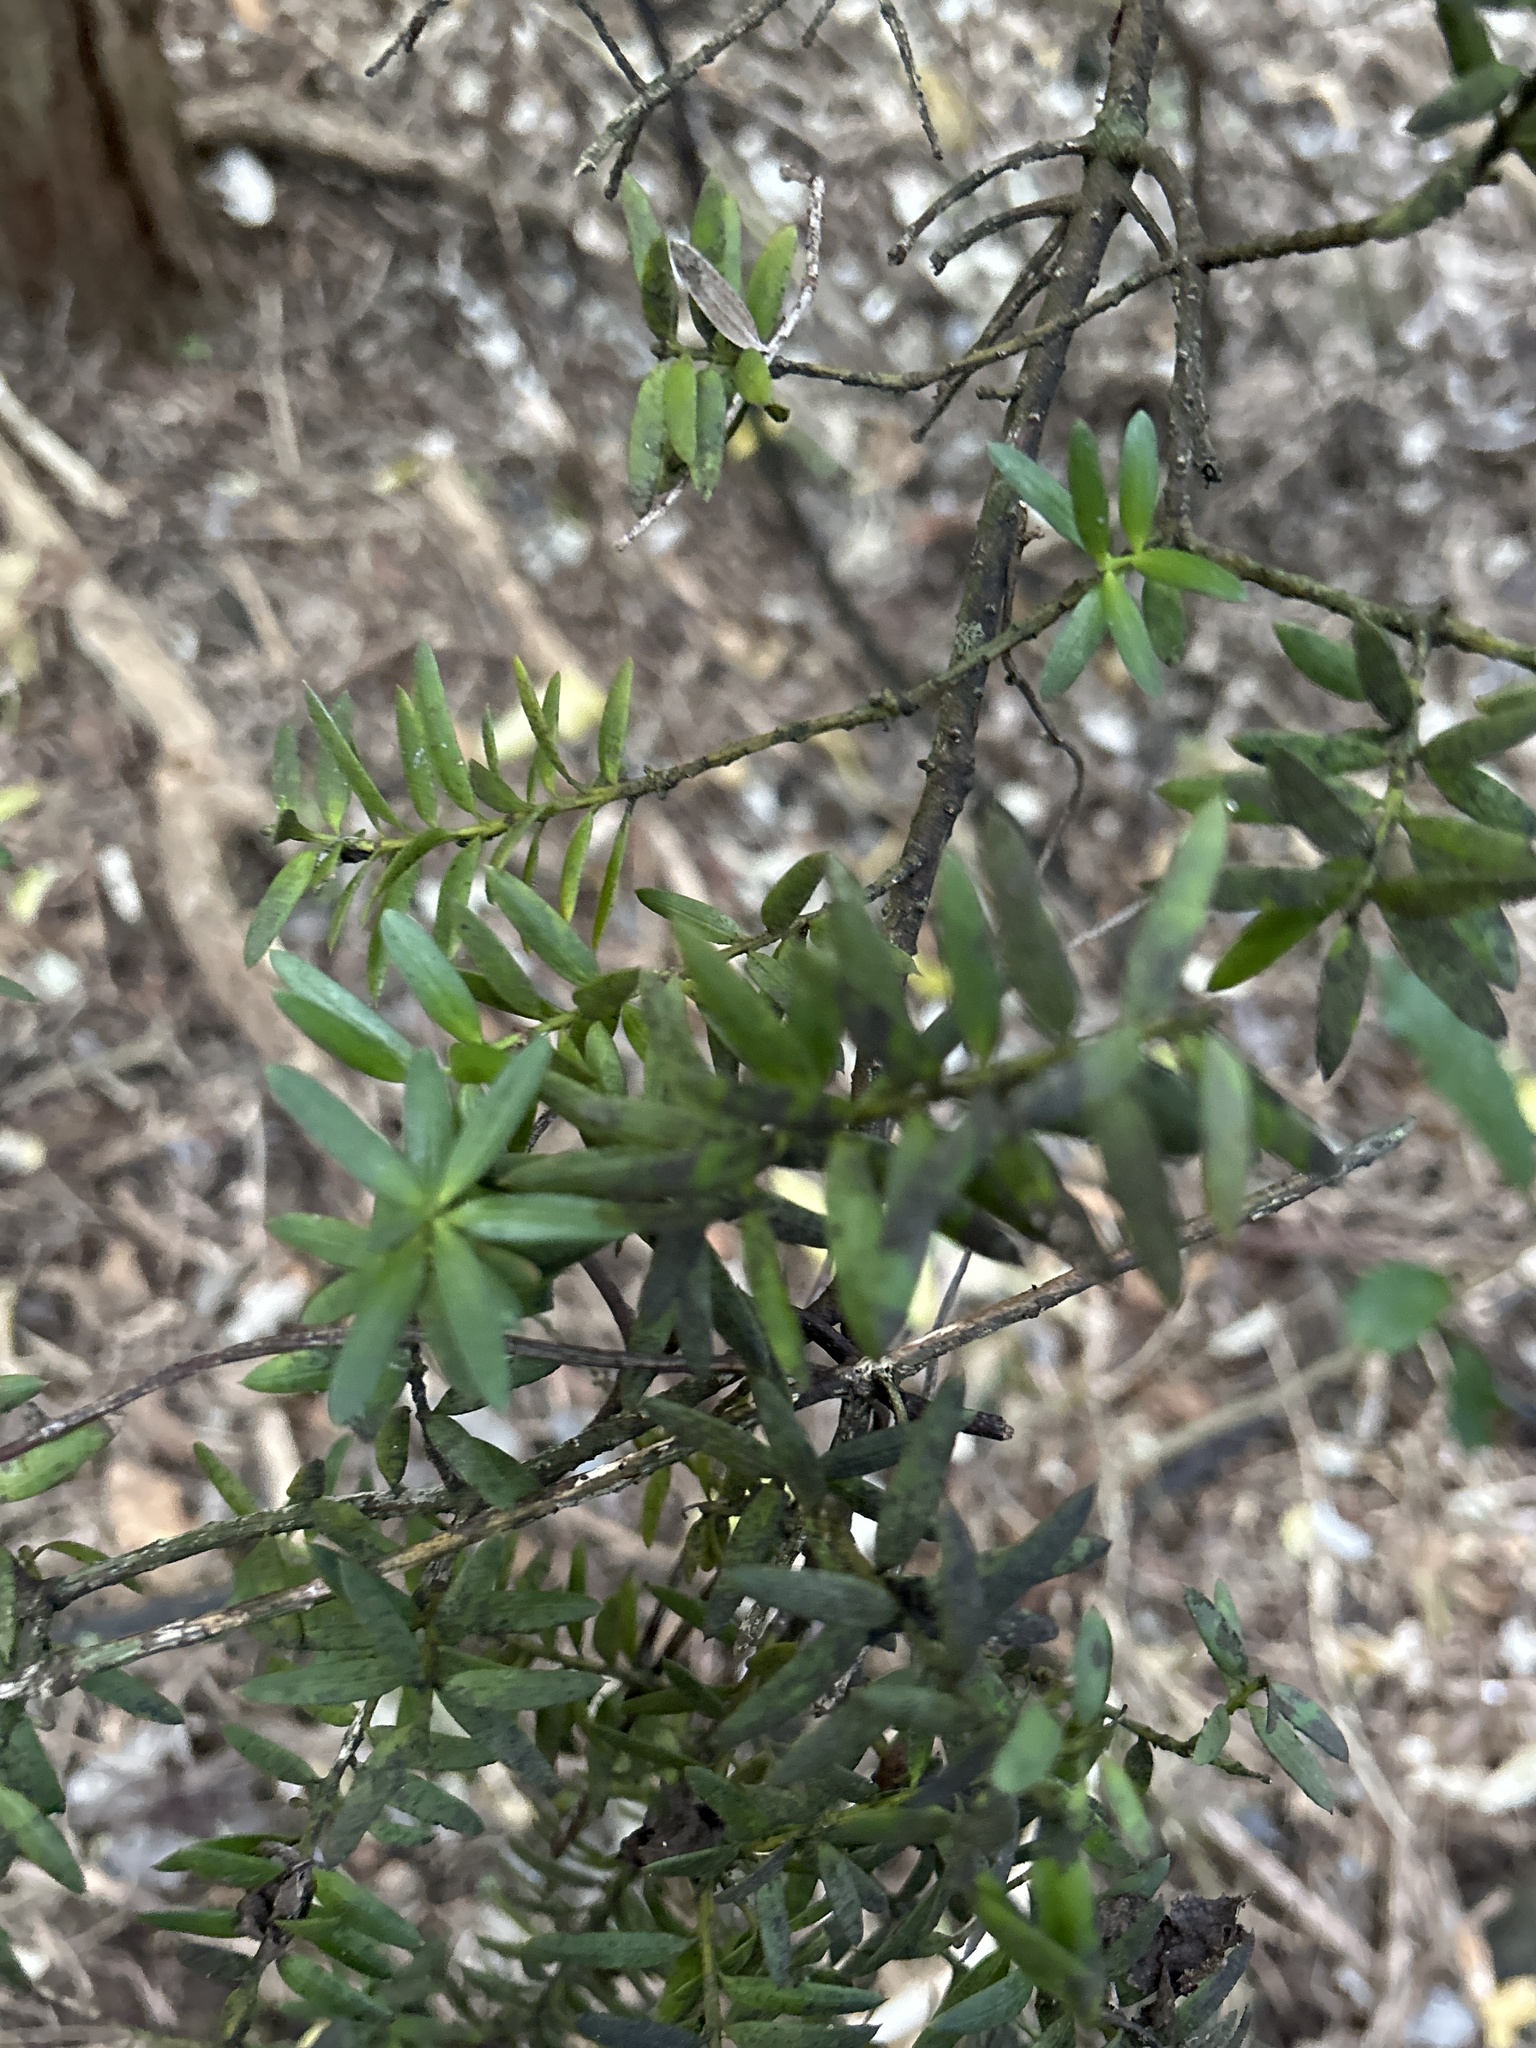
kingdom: Plantae
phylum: Tracheophyta
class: Pinopsida
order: Pinales
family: Podocarpaceae
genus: Podocarpus
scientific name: Podocarpus totara
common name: Totara
